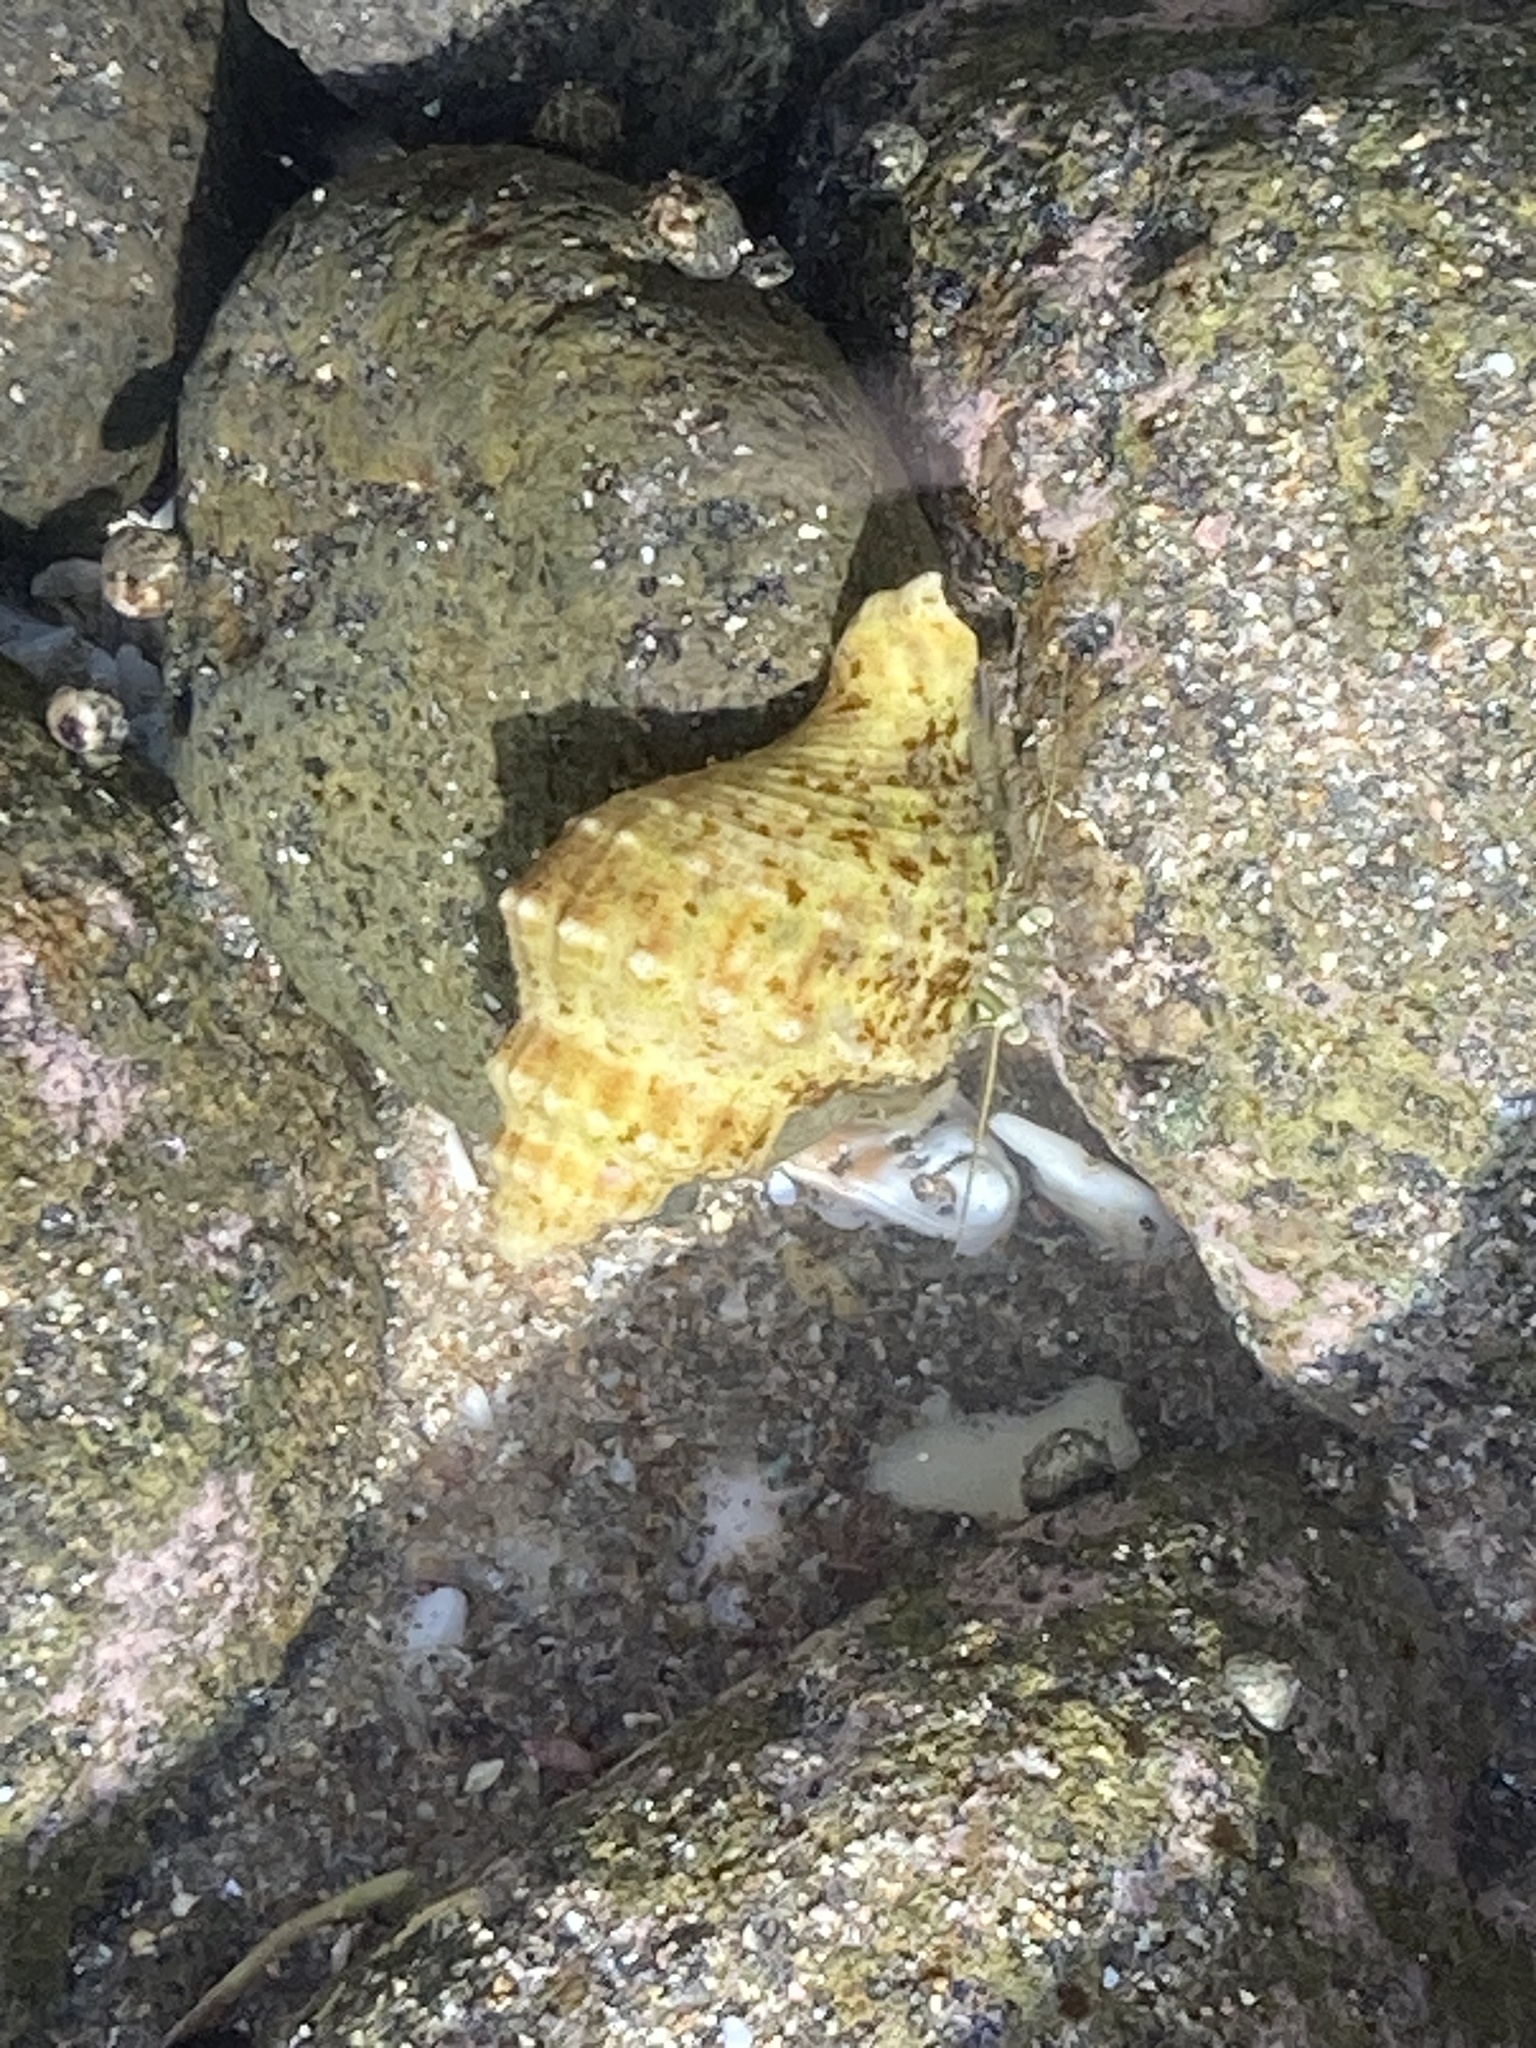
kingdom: Animalia
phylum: Arthropoda
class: Malacostraca
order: Decapoda
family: Paguridae
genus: Pagurus
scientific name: Pagurus novizealandiae
